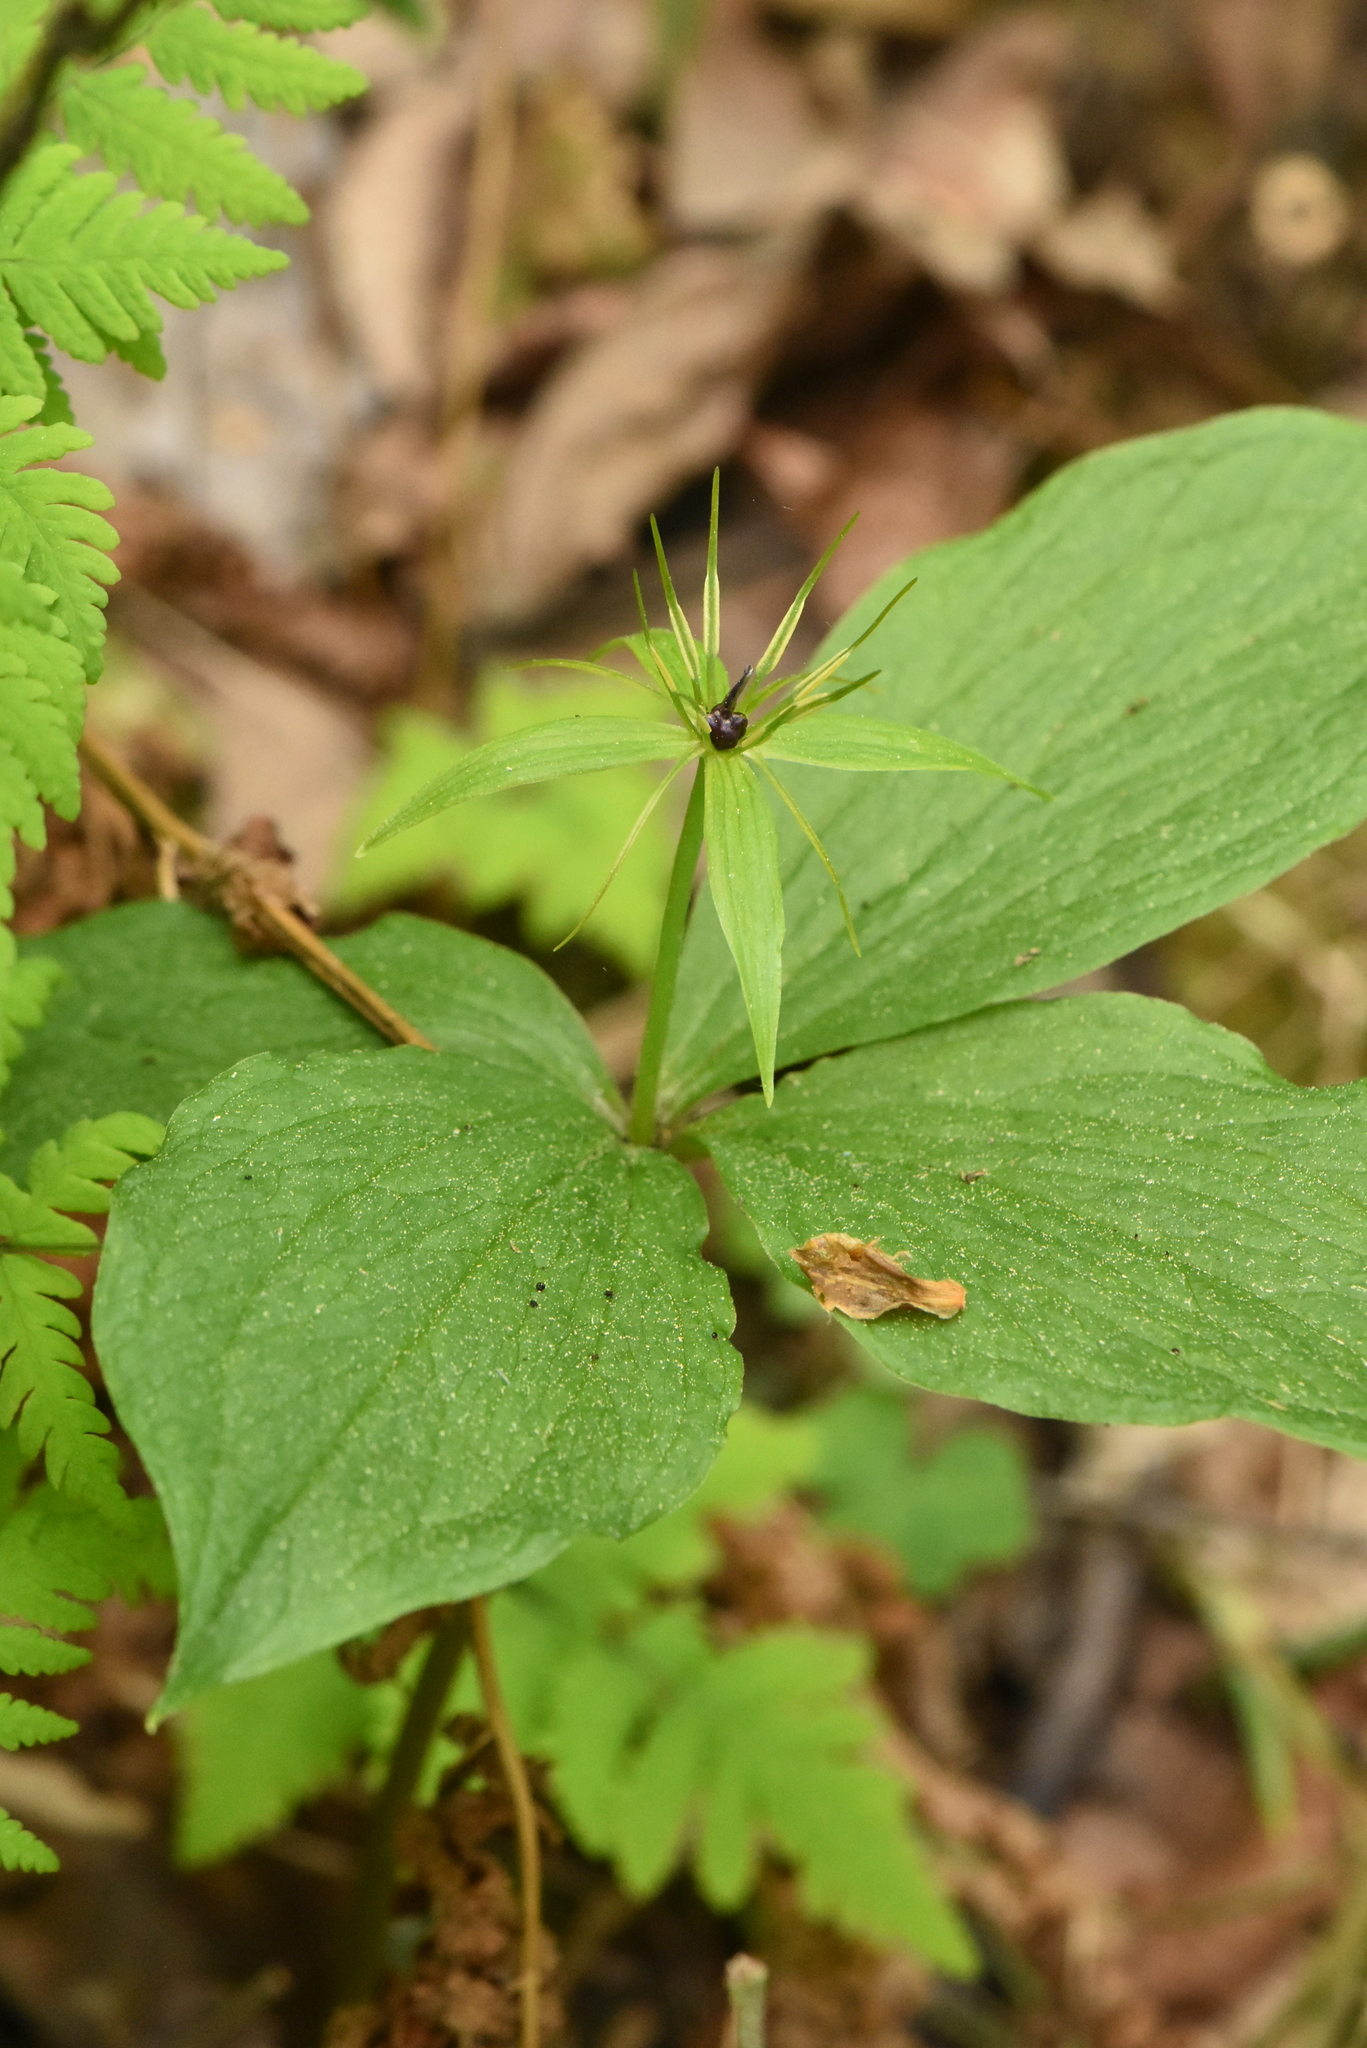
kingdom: Plantae
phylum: Tracheophyta
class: Liliopsida
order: Liliales
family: Melanthiaceae
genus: Paris
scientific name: Paris quadrifolia
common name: Herb-paris
